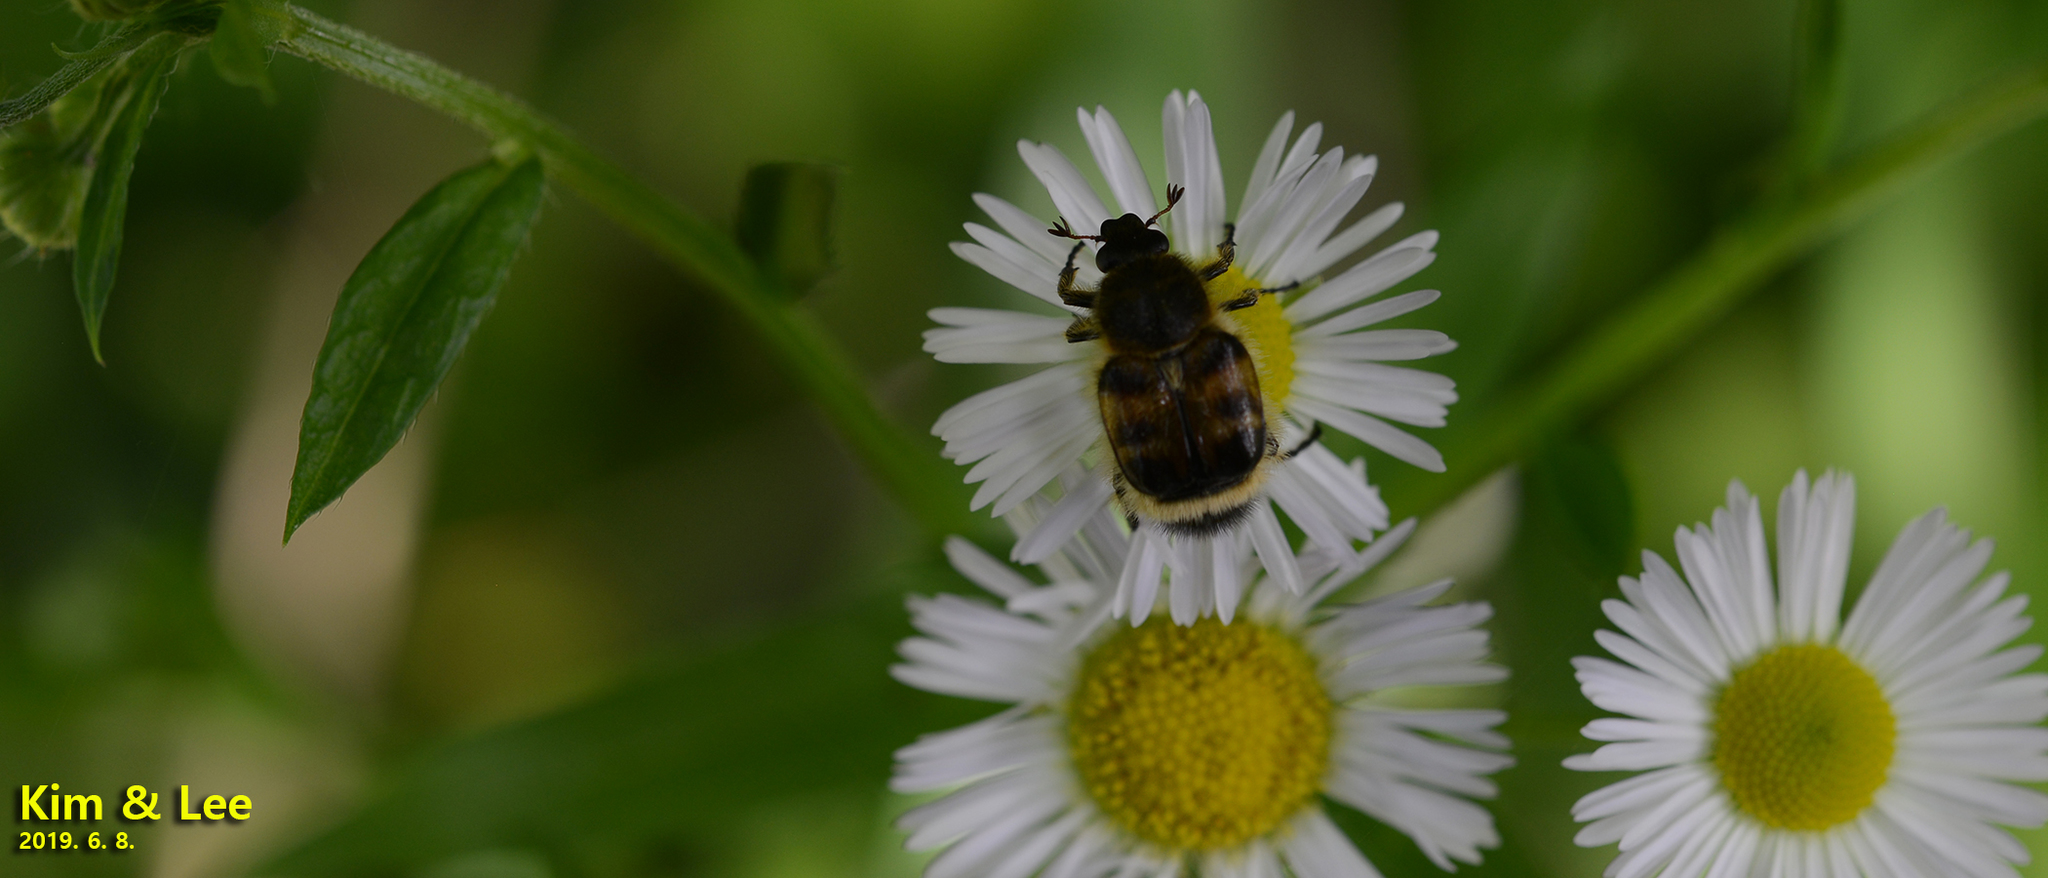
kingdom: Animalia
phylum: Arthropoda
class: Insecta
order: Coleoptera
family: Scarabaeidae
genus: Lasiotrichius
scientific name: Lasiotrichius succinctus
